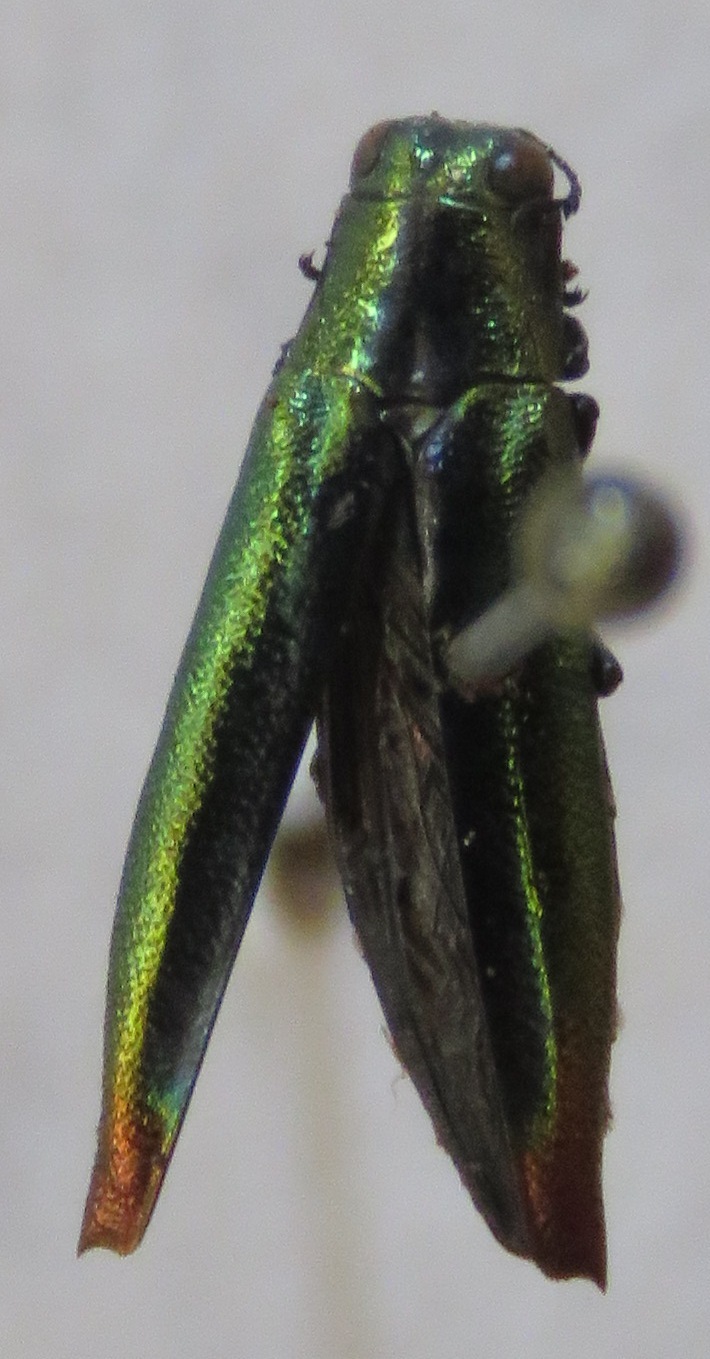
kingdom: Animalia
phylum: Arthropoda
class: Insecta
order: Coleoptera
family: Buprestidae
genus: Agrilus
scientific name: Agrilus furcillatus
